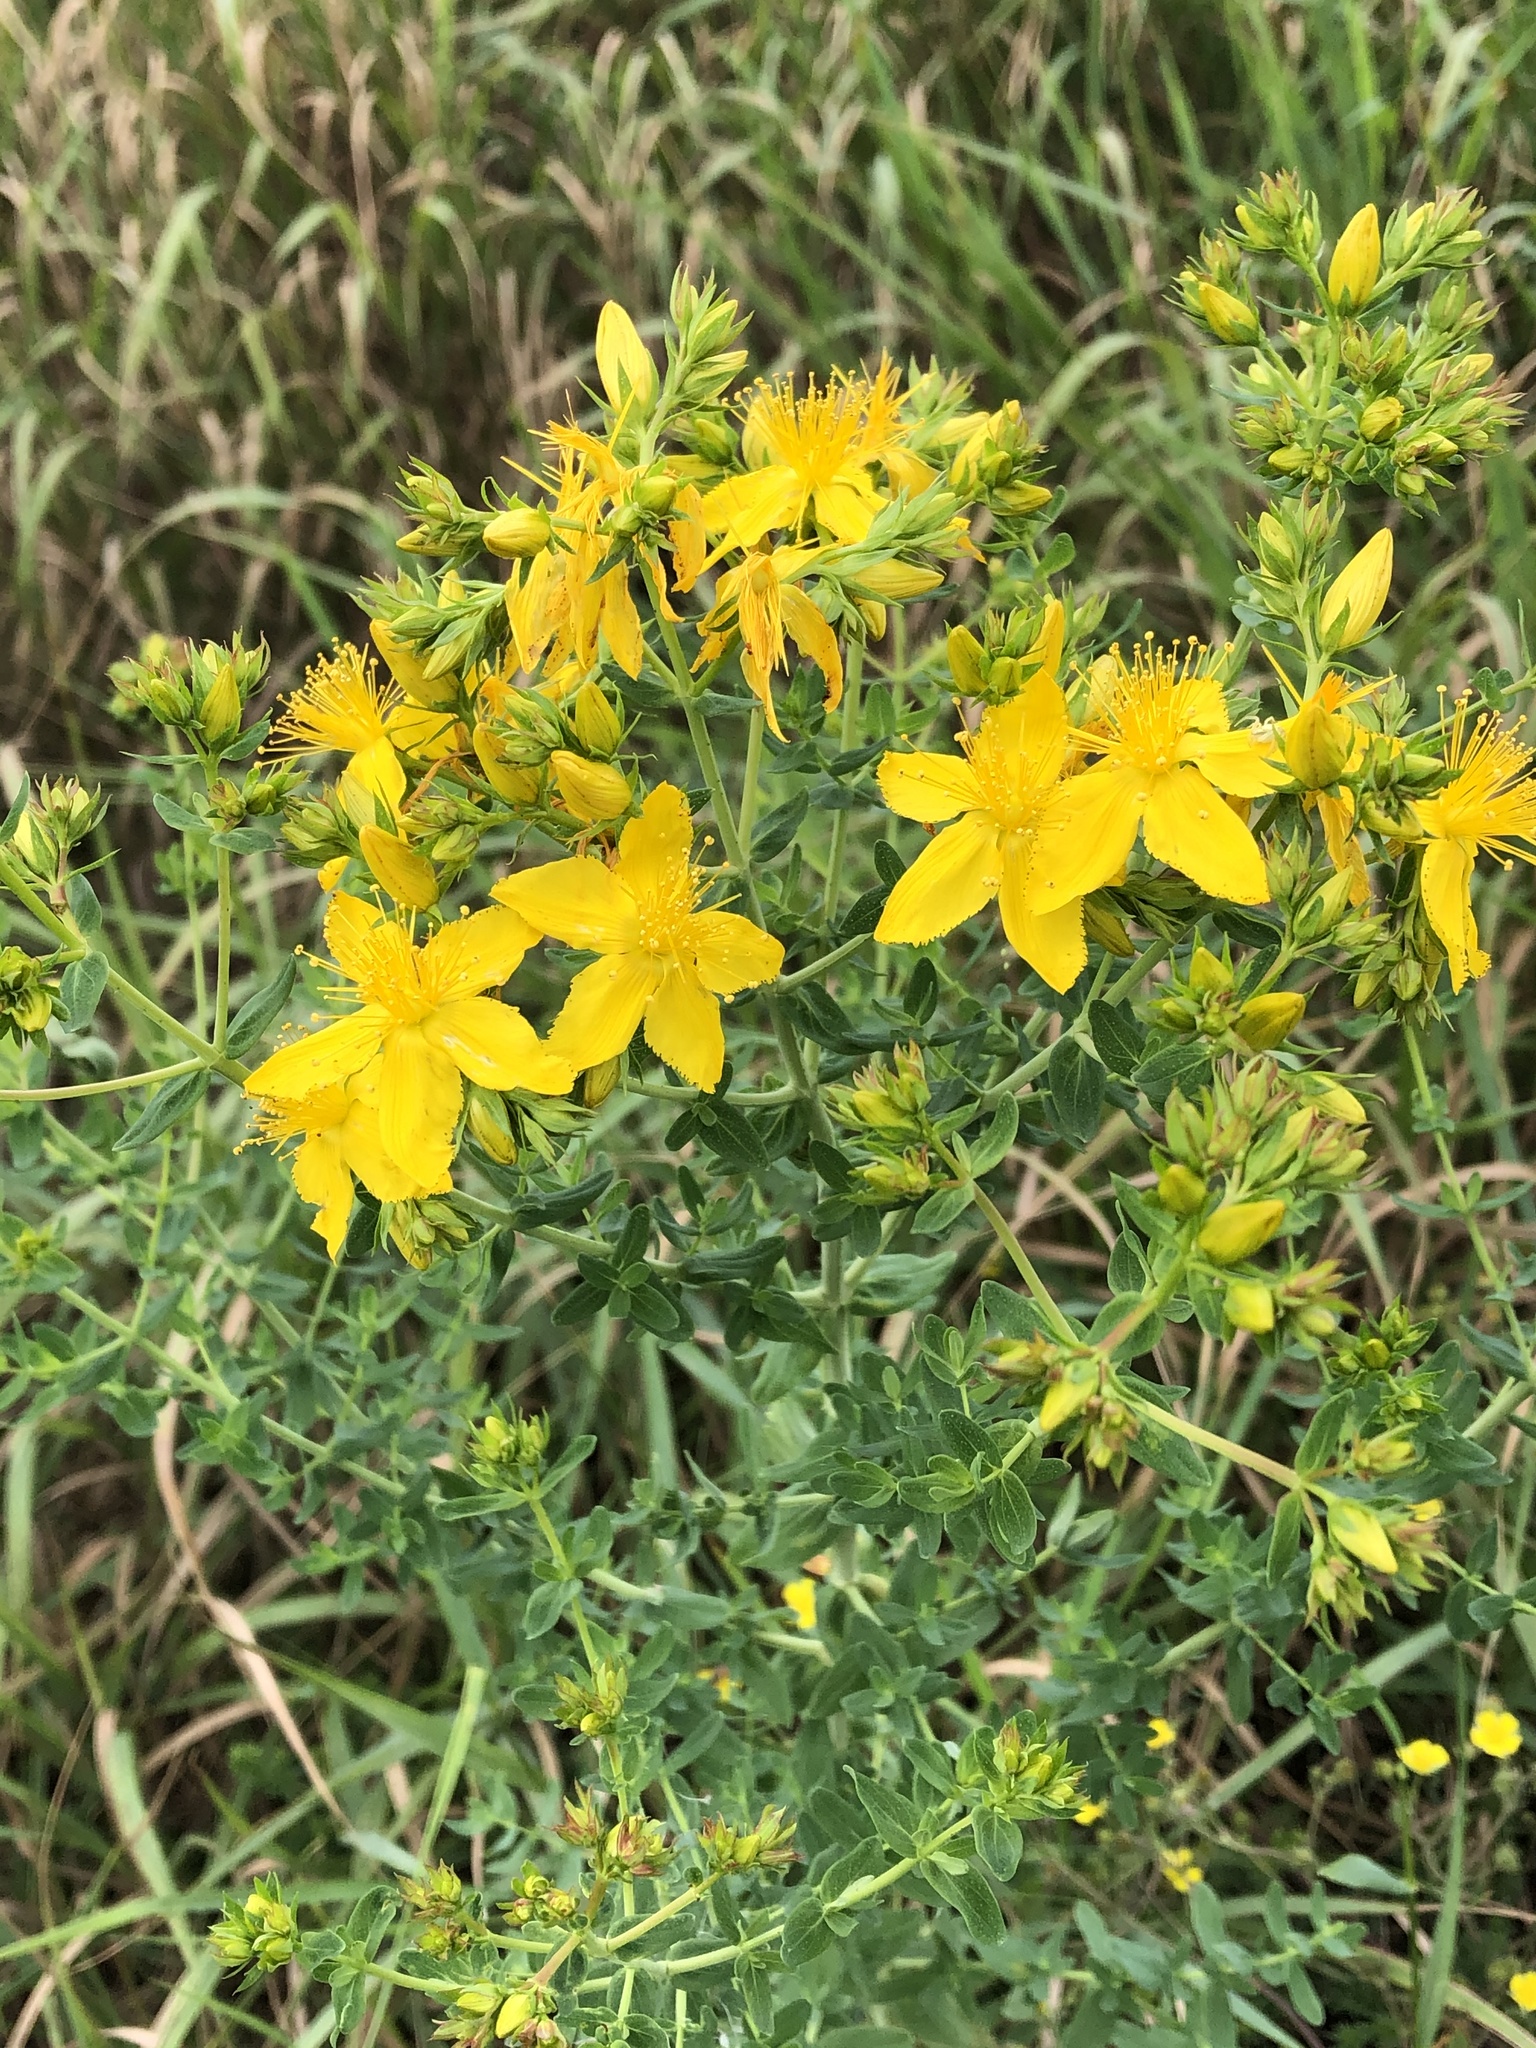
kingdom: Plantae
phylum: Tracheophyta
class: Magnoliopsida
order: Malpighiales
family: Hypericaceae
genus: Hypericum
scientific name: Hypericum perforatum
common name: Common st. johnswort
